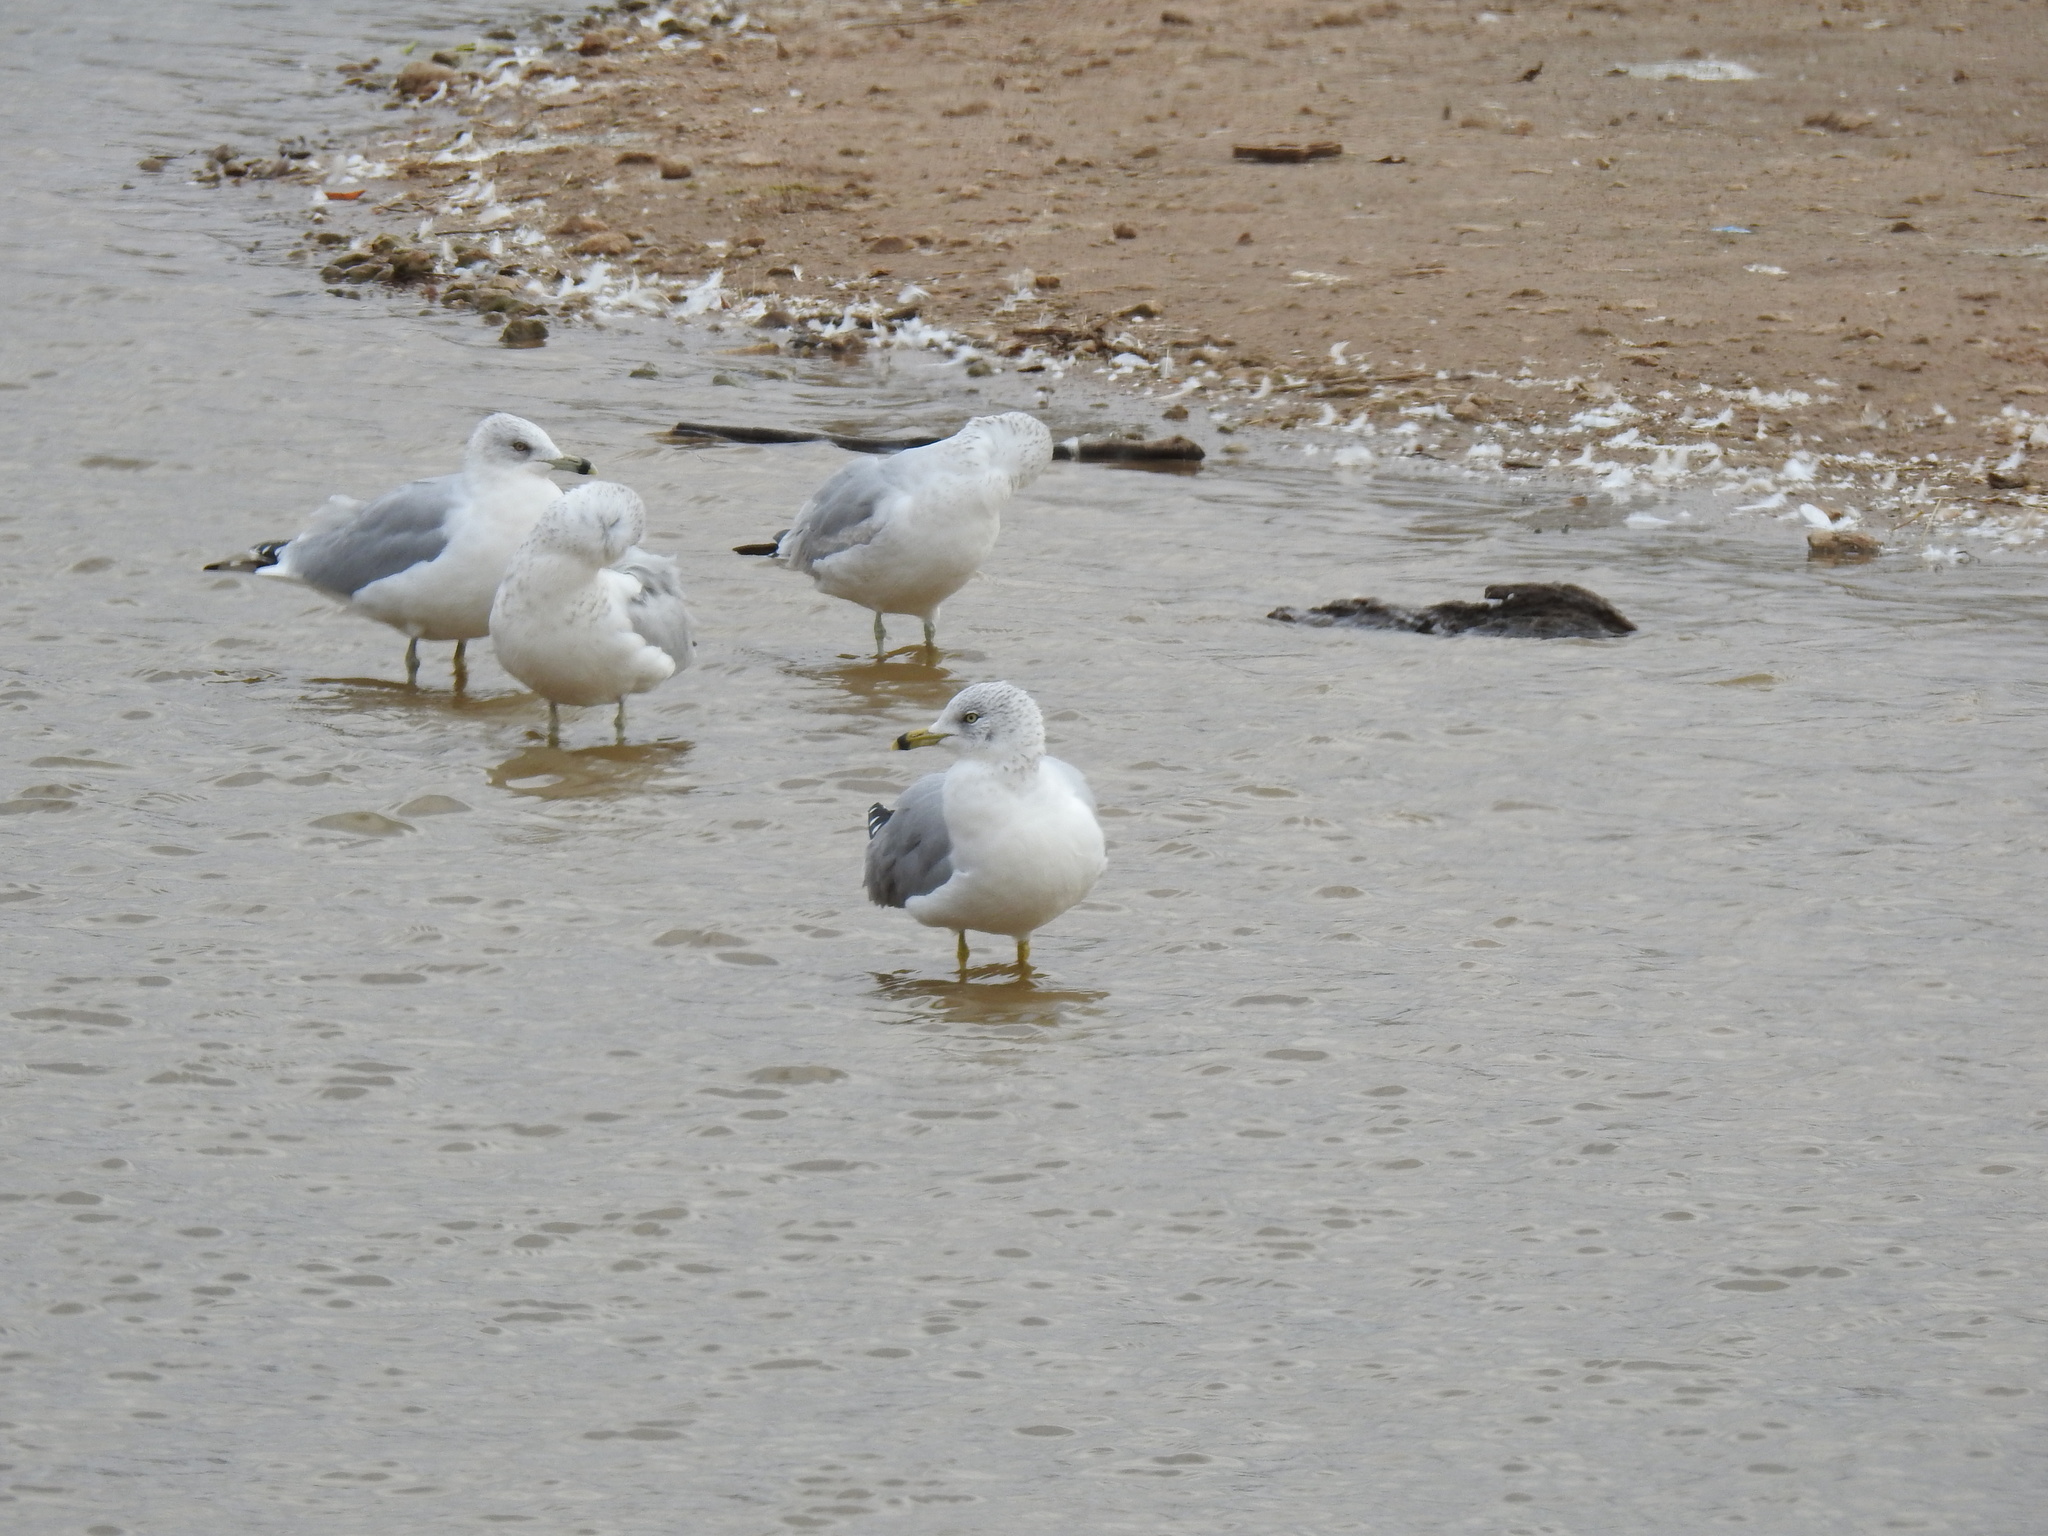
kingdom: Animalia
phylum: Chordata
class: Aves
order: Charadriiformes
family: Laridae
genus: Larus
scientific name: Larus delawarensis
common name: Ring-billed gull
